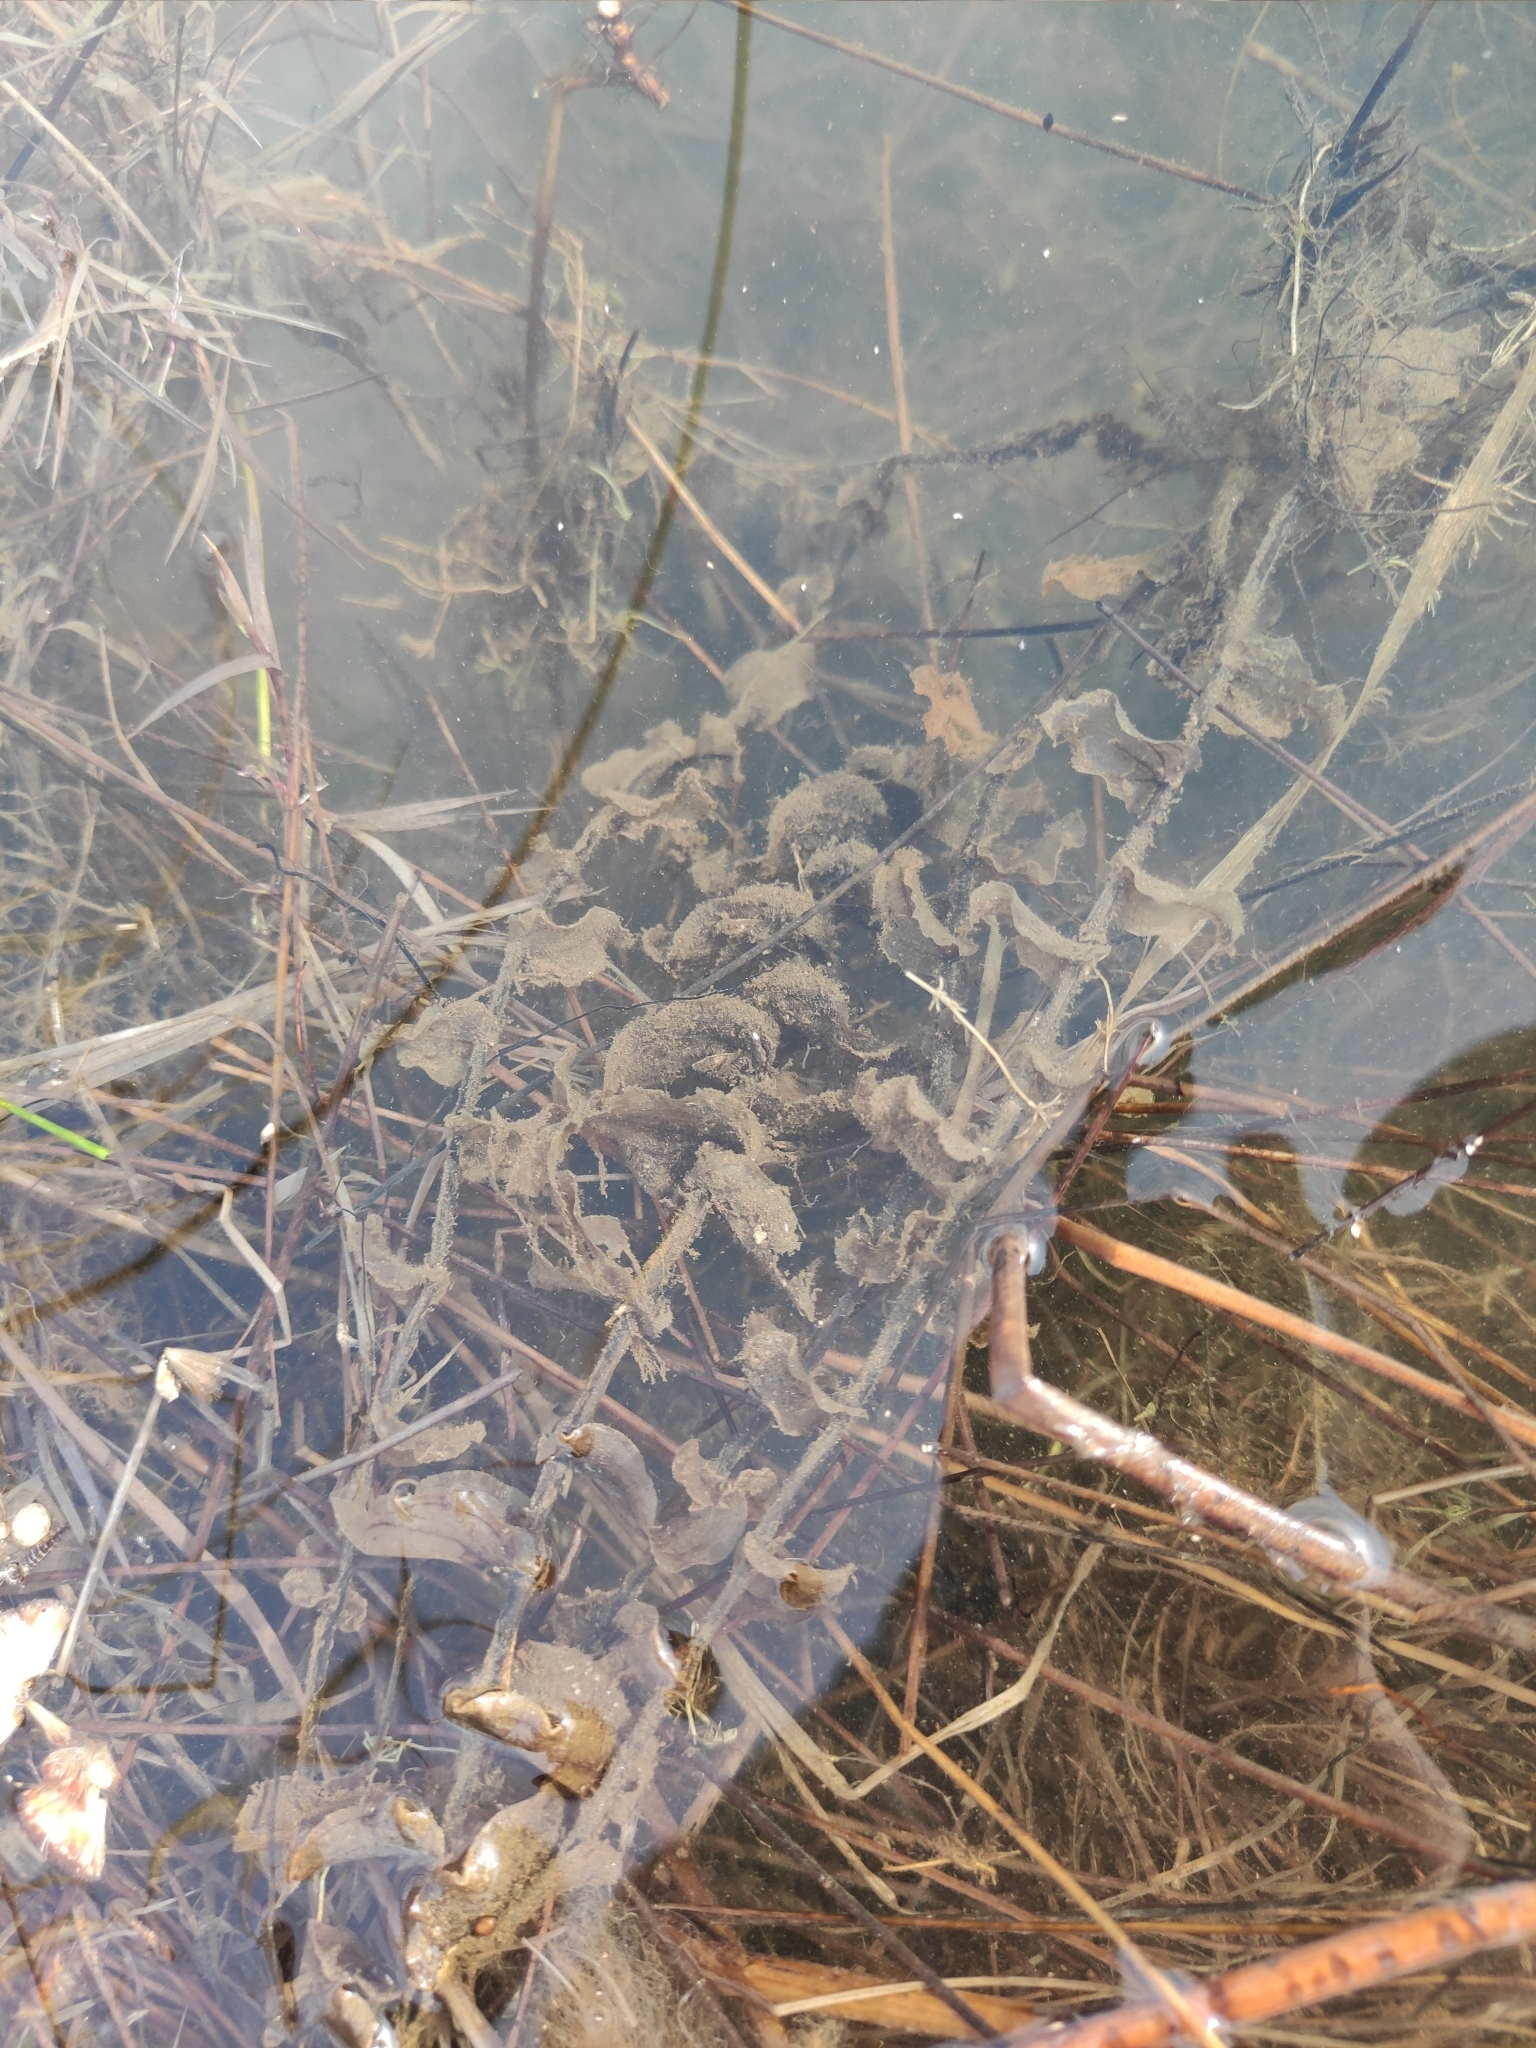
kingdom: Plantae
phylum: Tracheophyta
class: Liliopsida
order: Alismatales
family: Potamogetonaceae
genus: Potamogeton
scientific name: Potamogeton perfoliatus
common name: Perfoliate pondweed
